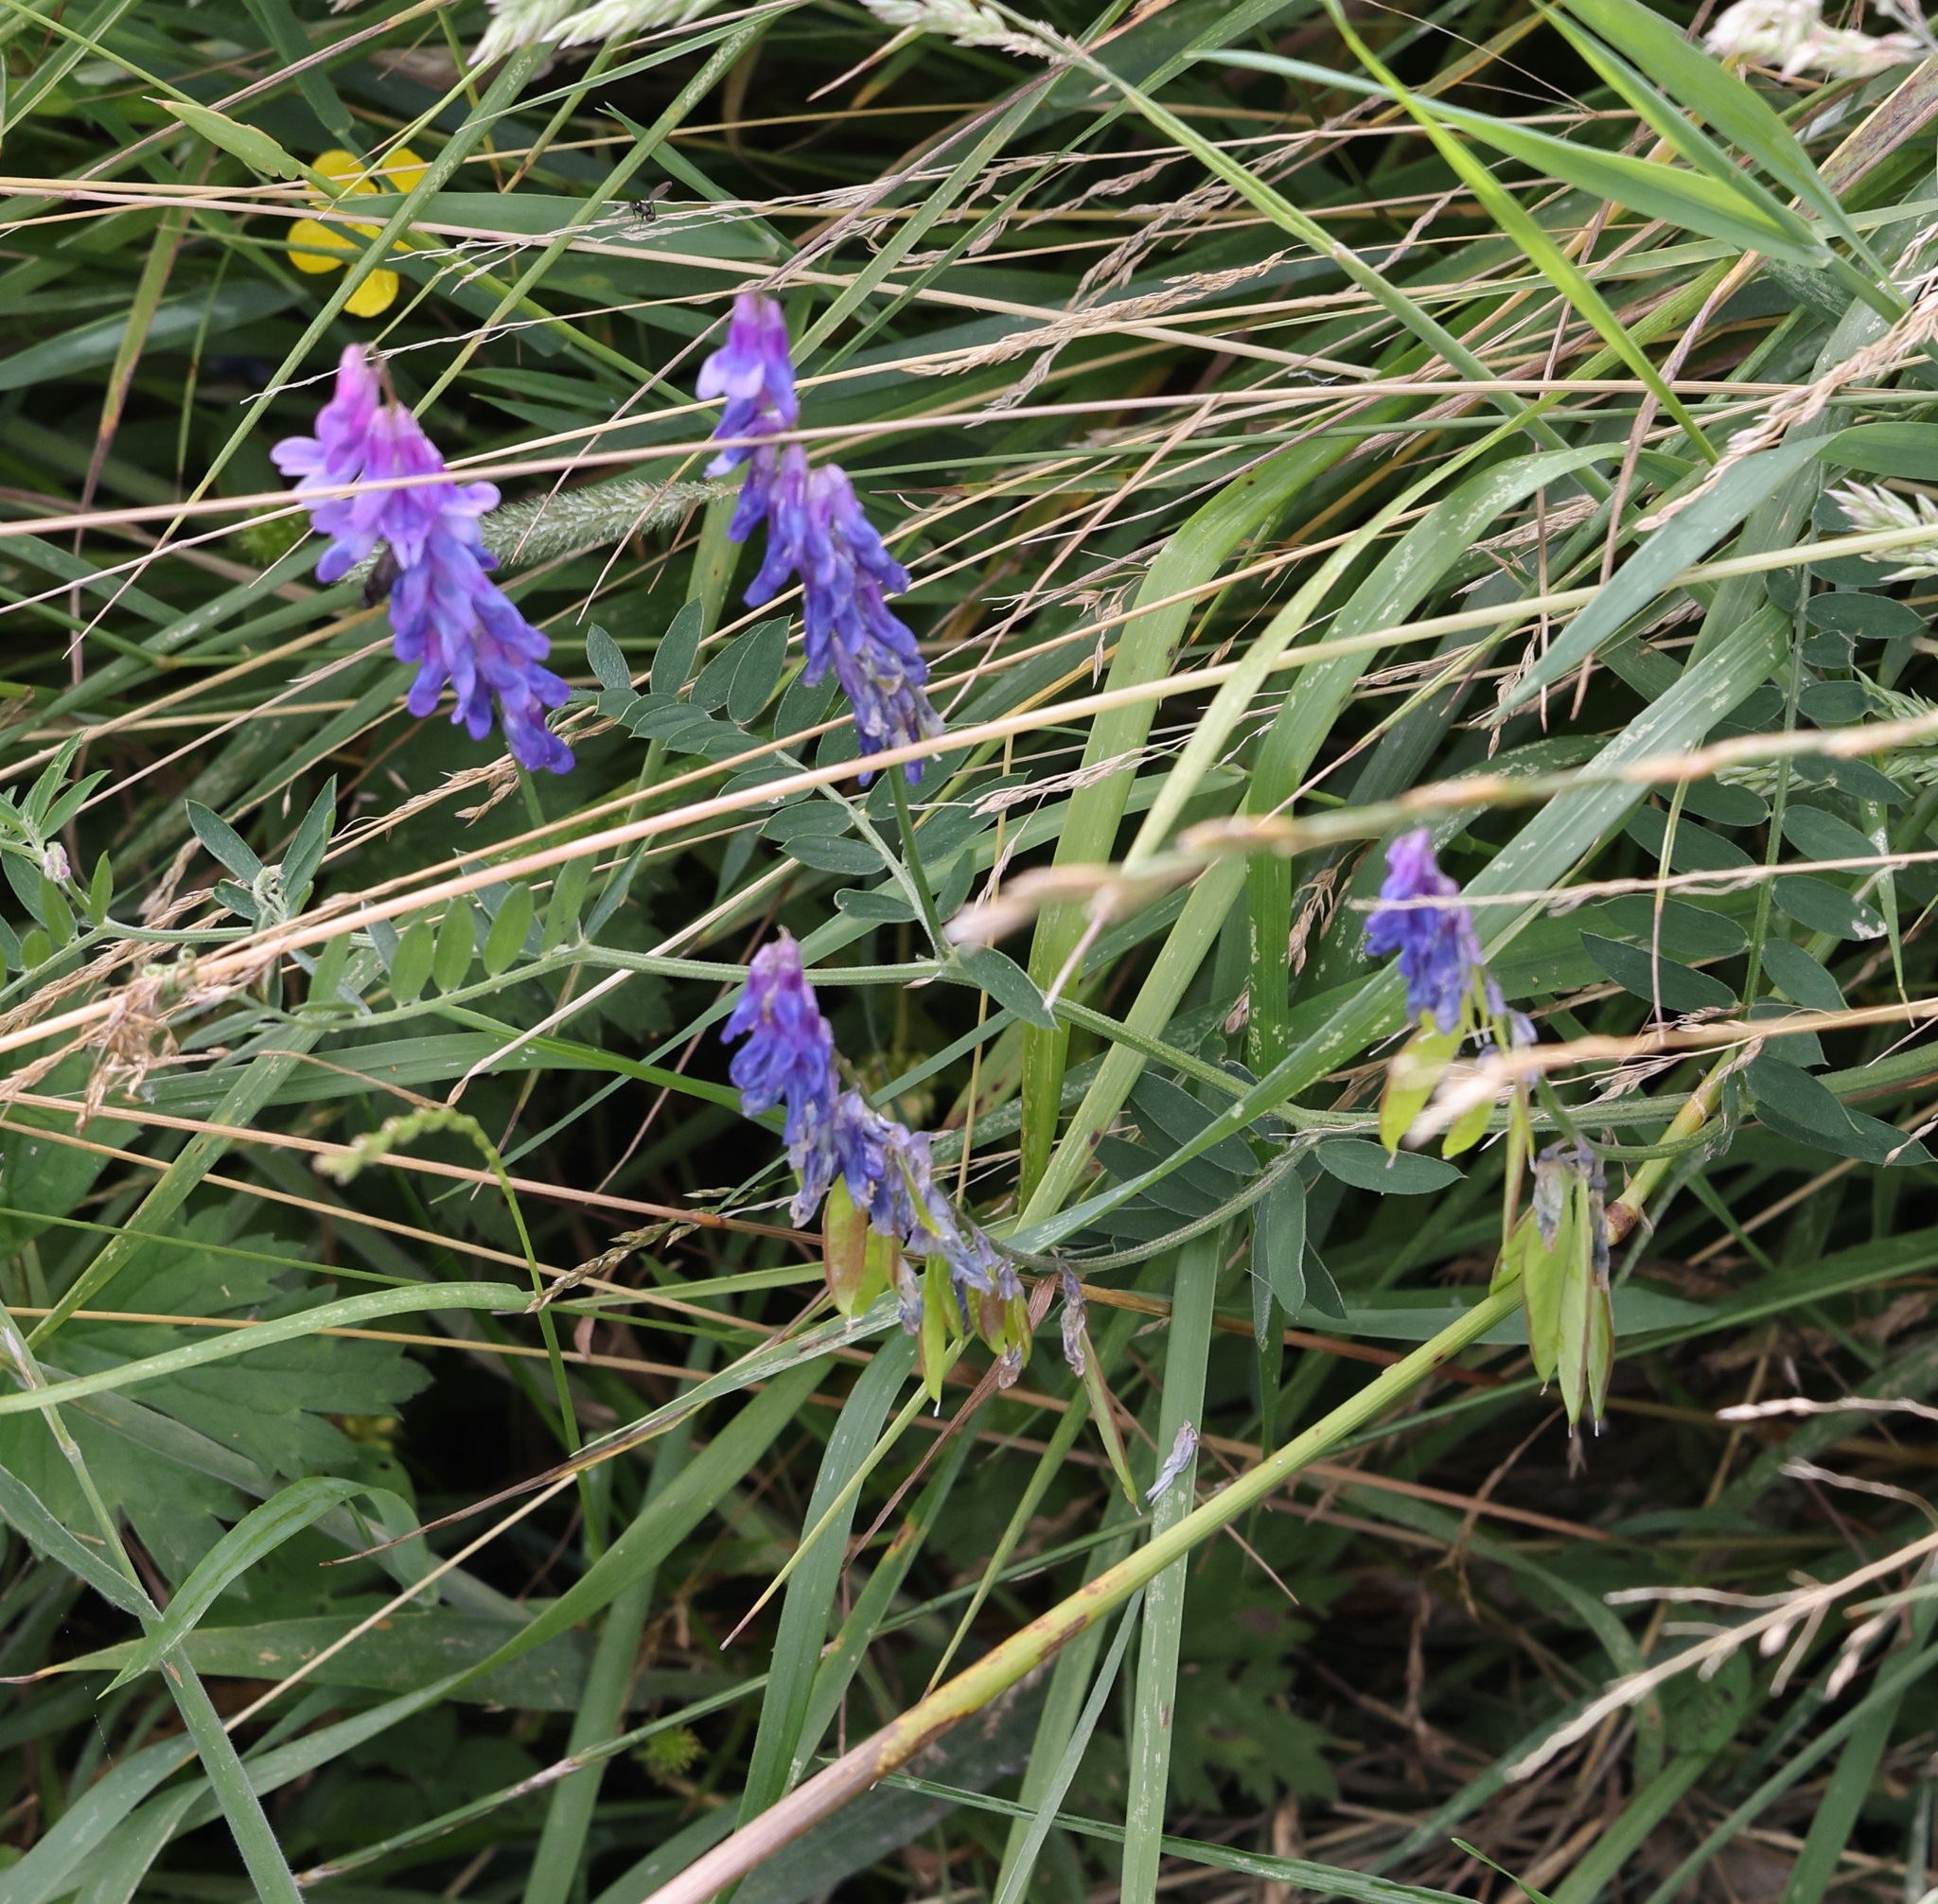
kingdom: Plantae
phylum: Tracheophyta
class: Magnoliopsida
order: Fabales
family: Fabaceae
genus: Vicia
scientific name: Vicia cracca
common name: Bird vetch
